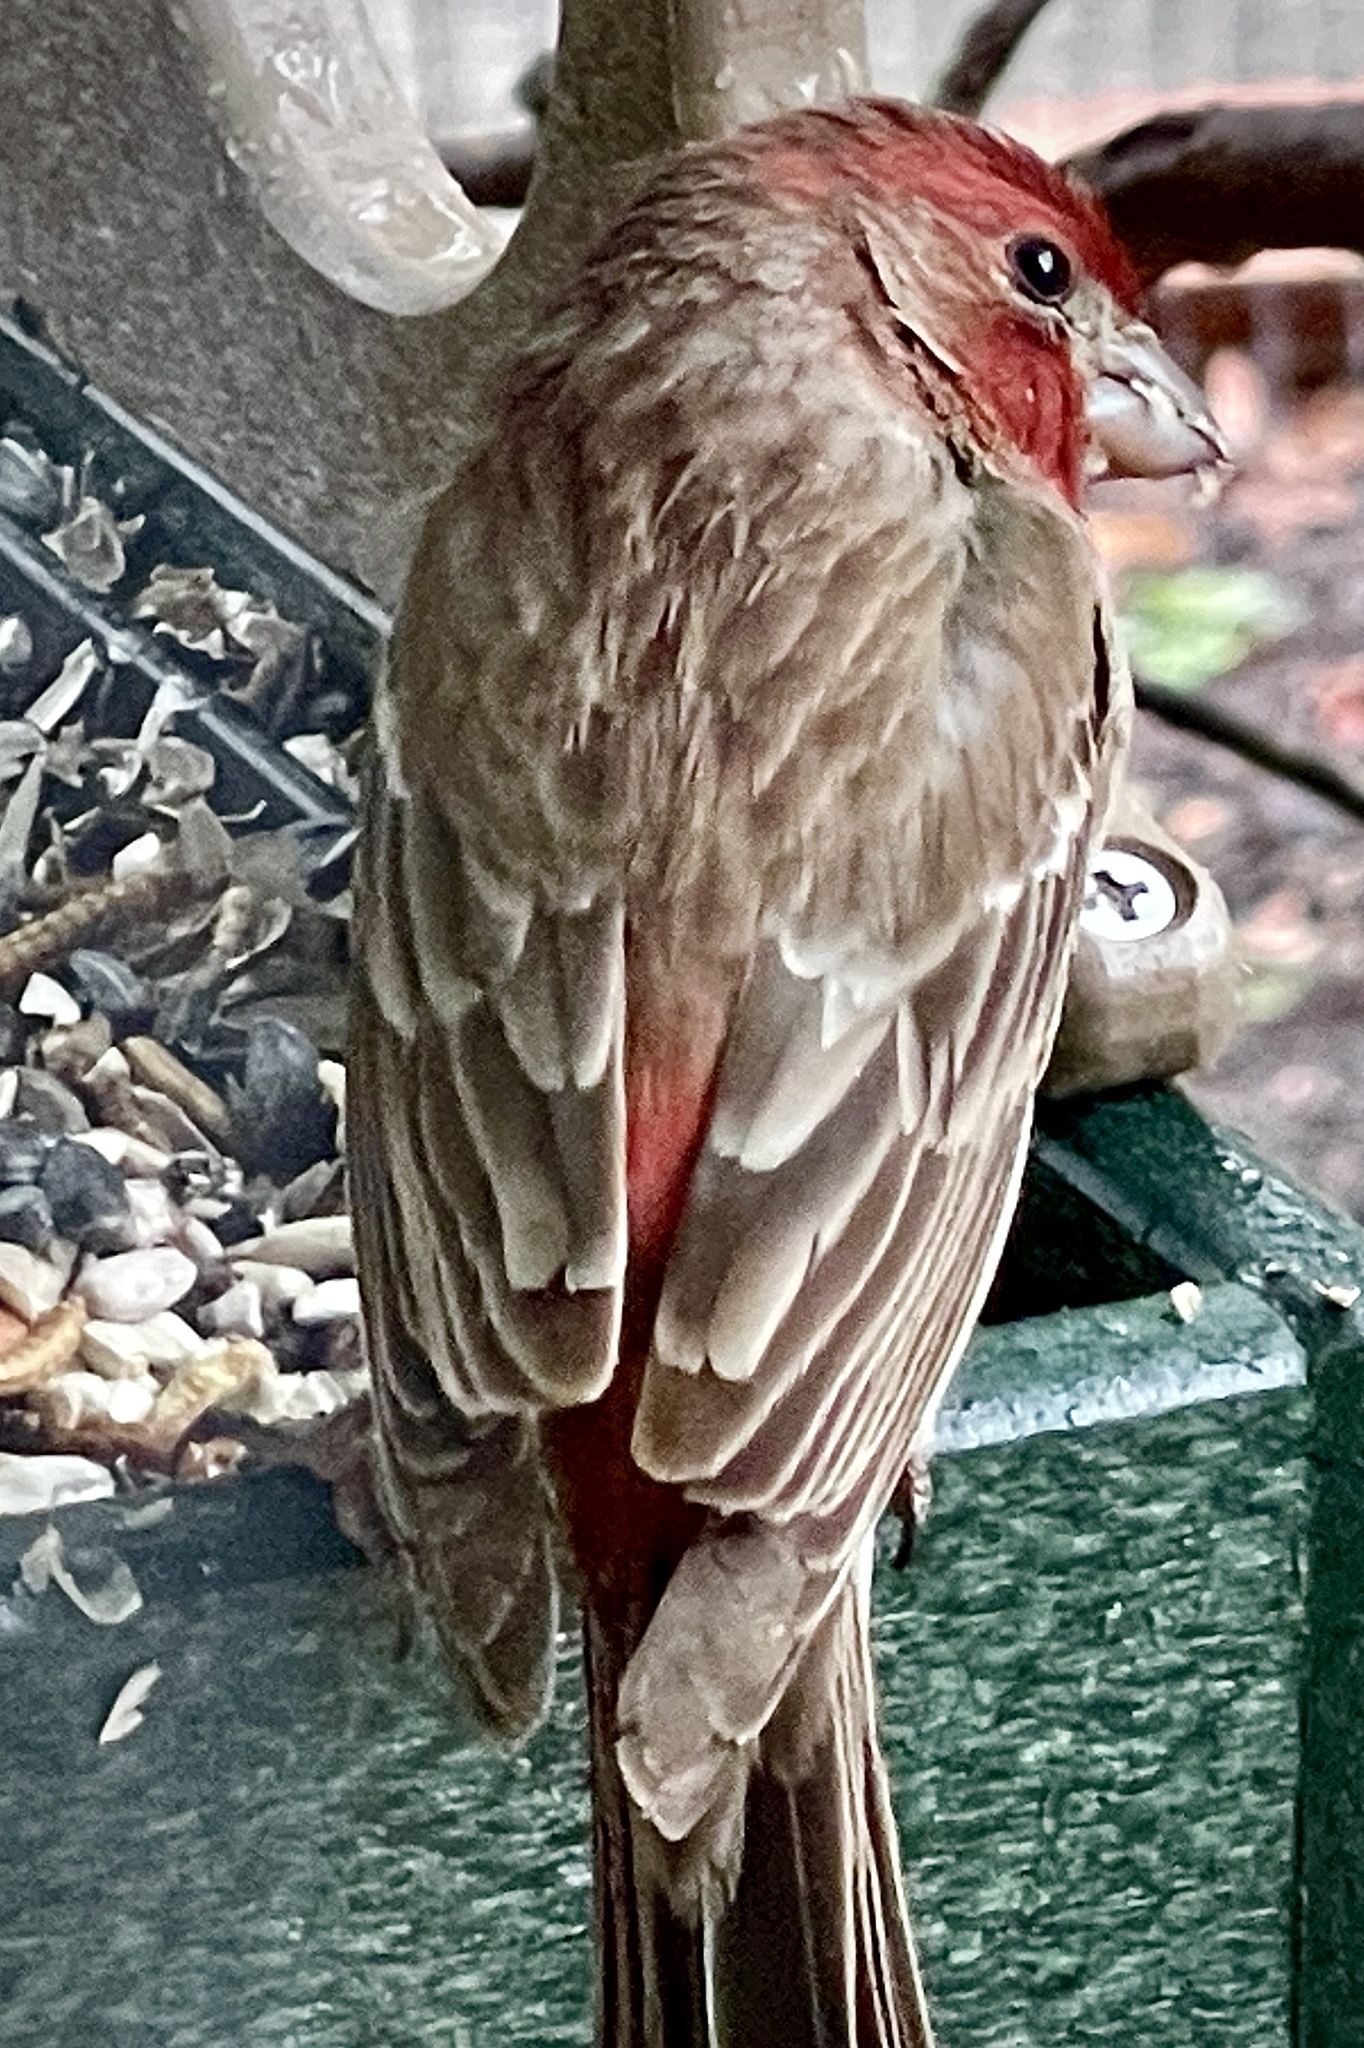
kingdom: Animalia
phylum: Chordata
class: Aves
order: Passeriformes
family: Fringillidae
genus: Haemorhous
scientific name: Haemorhous mexicanus
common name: House finch
